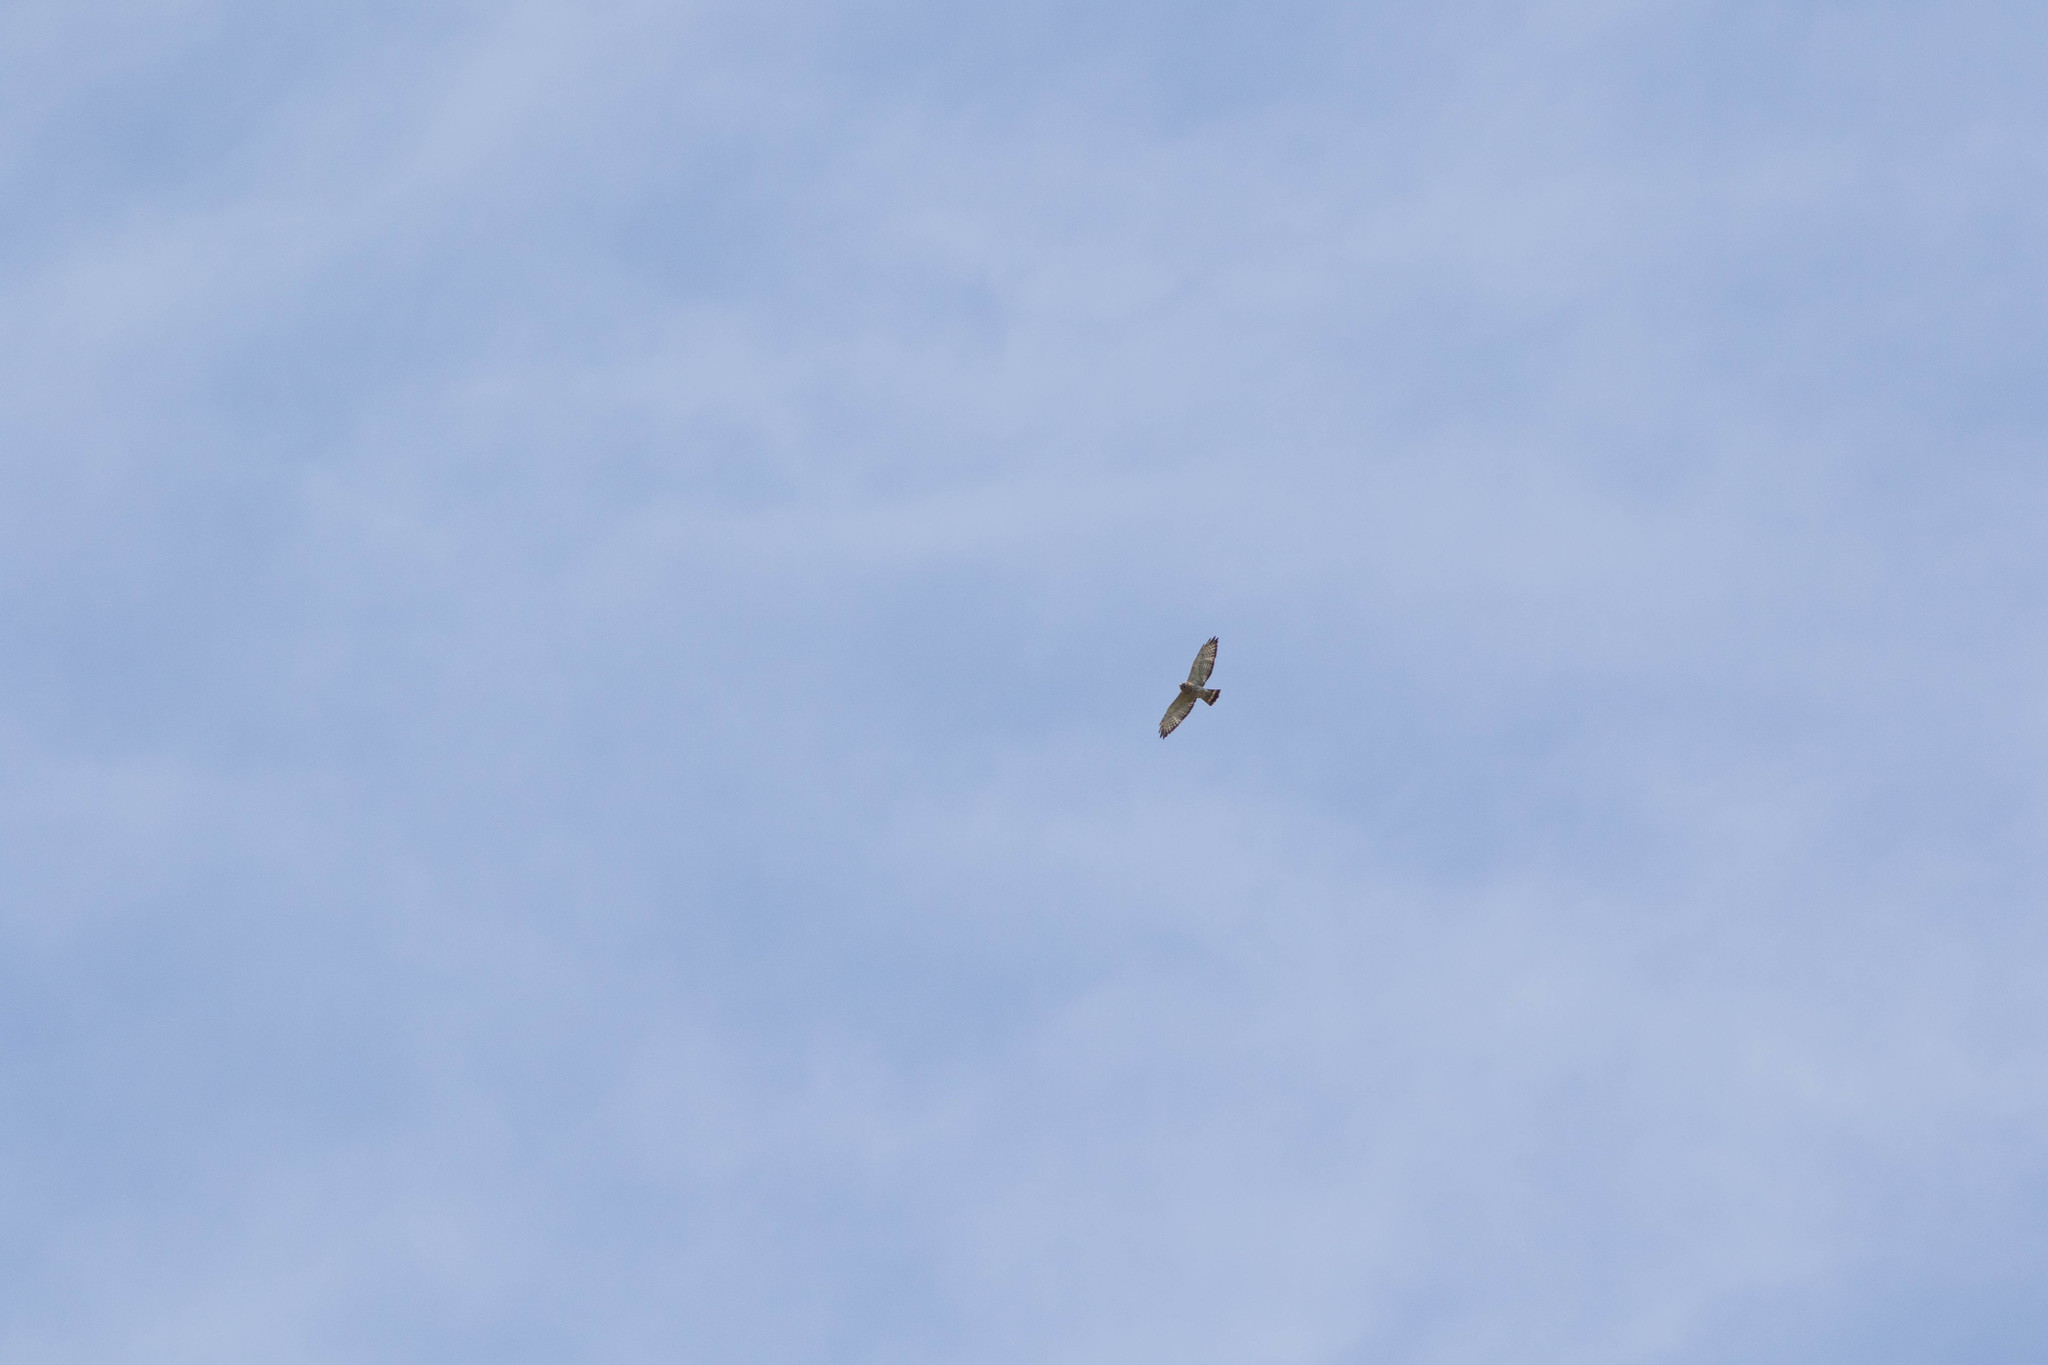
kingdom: Animalia
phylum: Chordata
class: Aves
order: Accipitriformes
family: Accipitridae
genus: Buteo
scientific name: Buteo platypterus
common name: Broad-winged hawk
